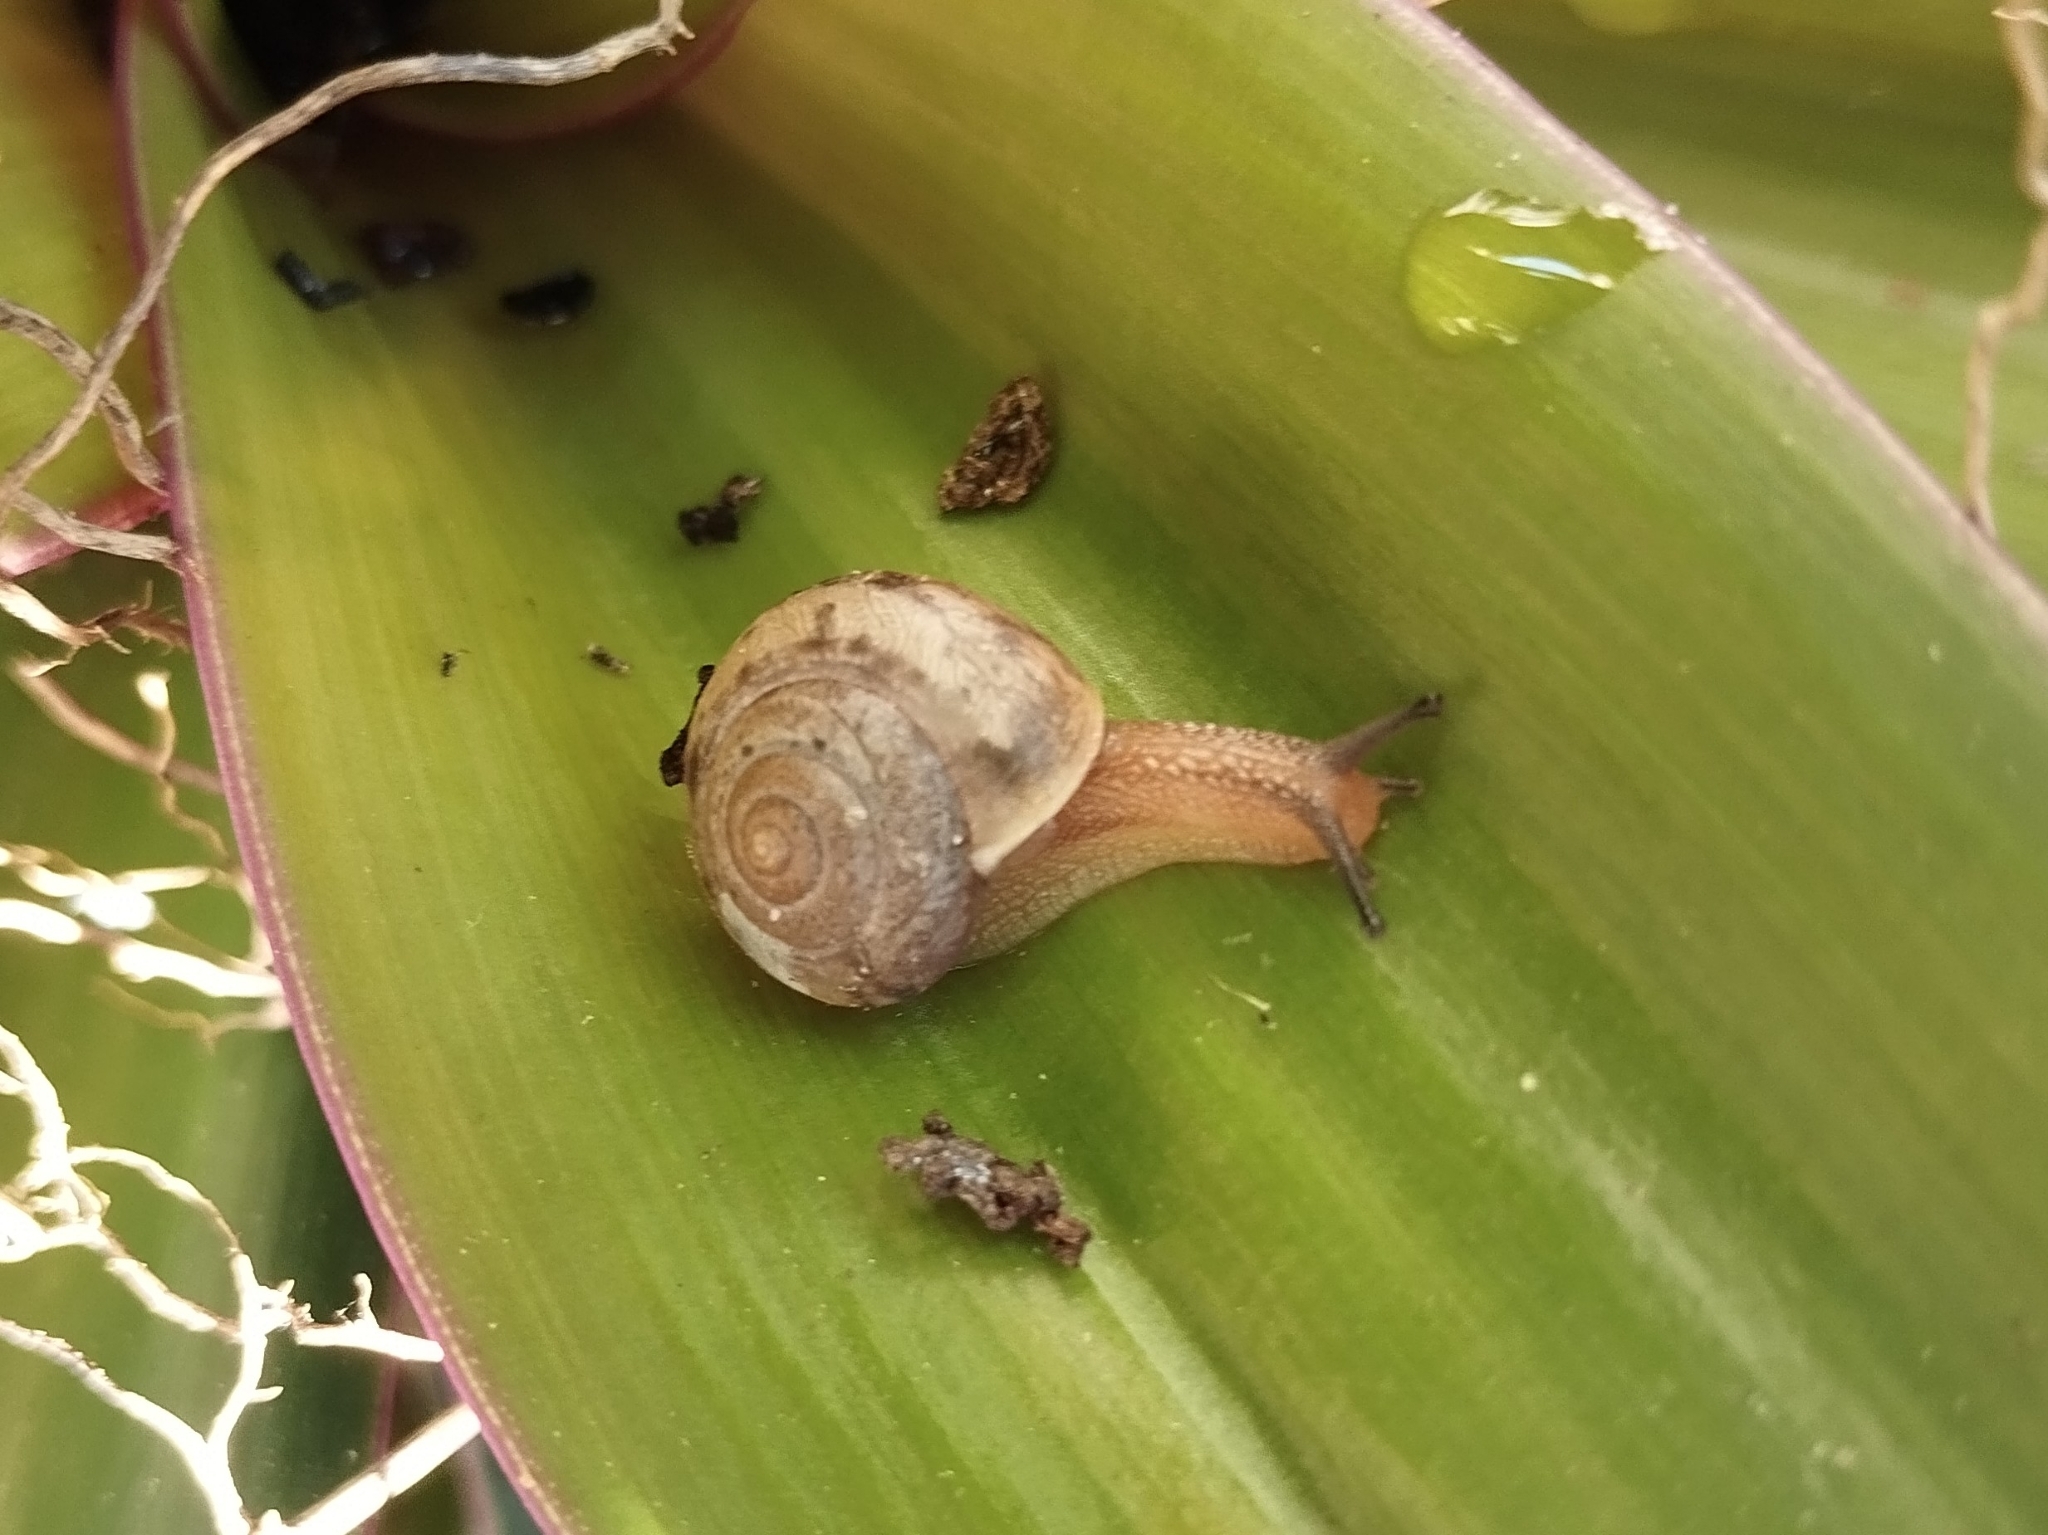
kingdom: Animalia
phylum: Mollusca
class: Gastropoda
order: Stylommatophora
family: Camaenidae
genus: Bradybaena
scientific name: Bradybaena similaris
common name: Asian trampsnail
